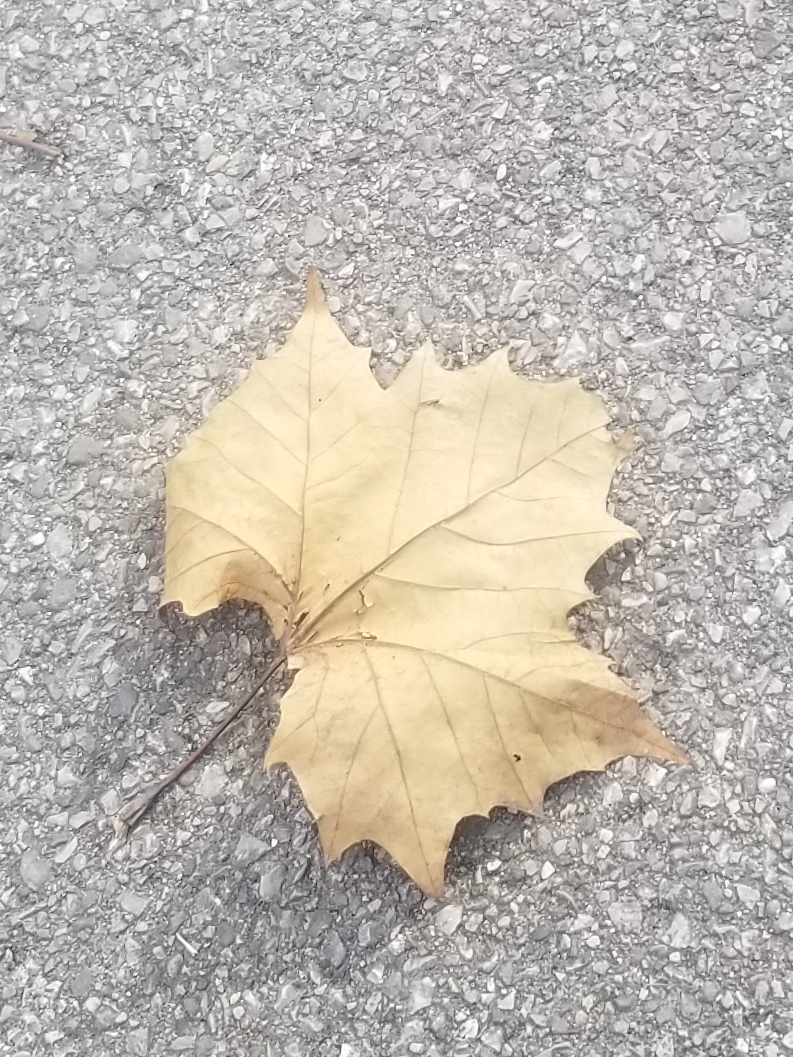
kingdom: Plantae
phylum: Tracheophyta
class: Magnoliopsida
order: Proteales
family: Platanaceae
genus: Platanus
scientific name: Platanus occidentalis
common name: American sycamore
